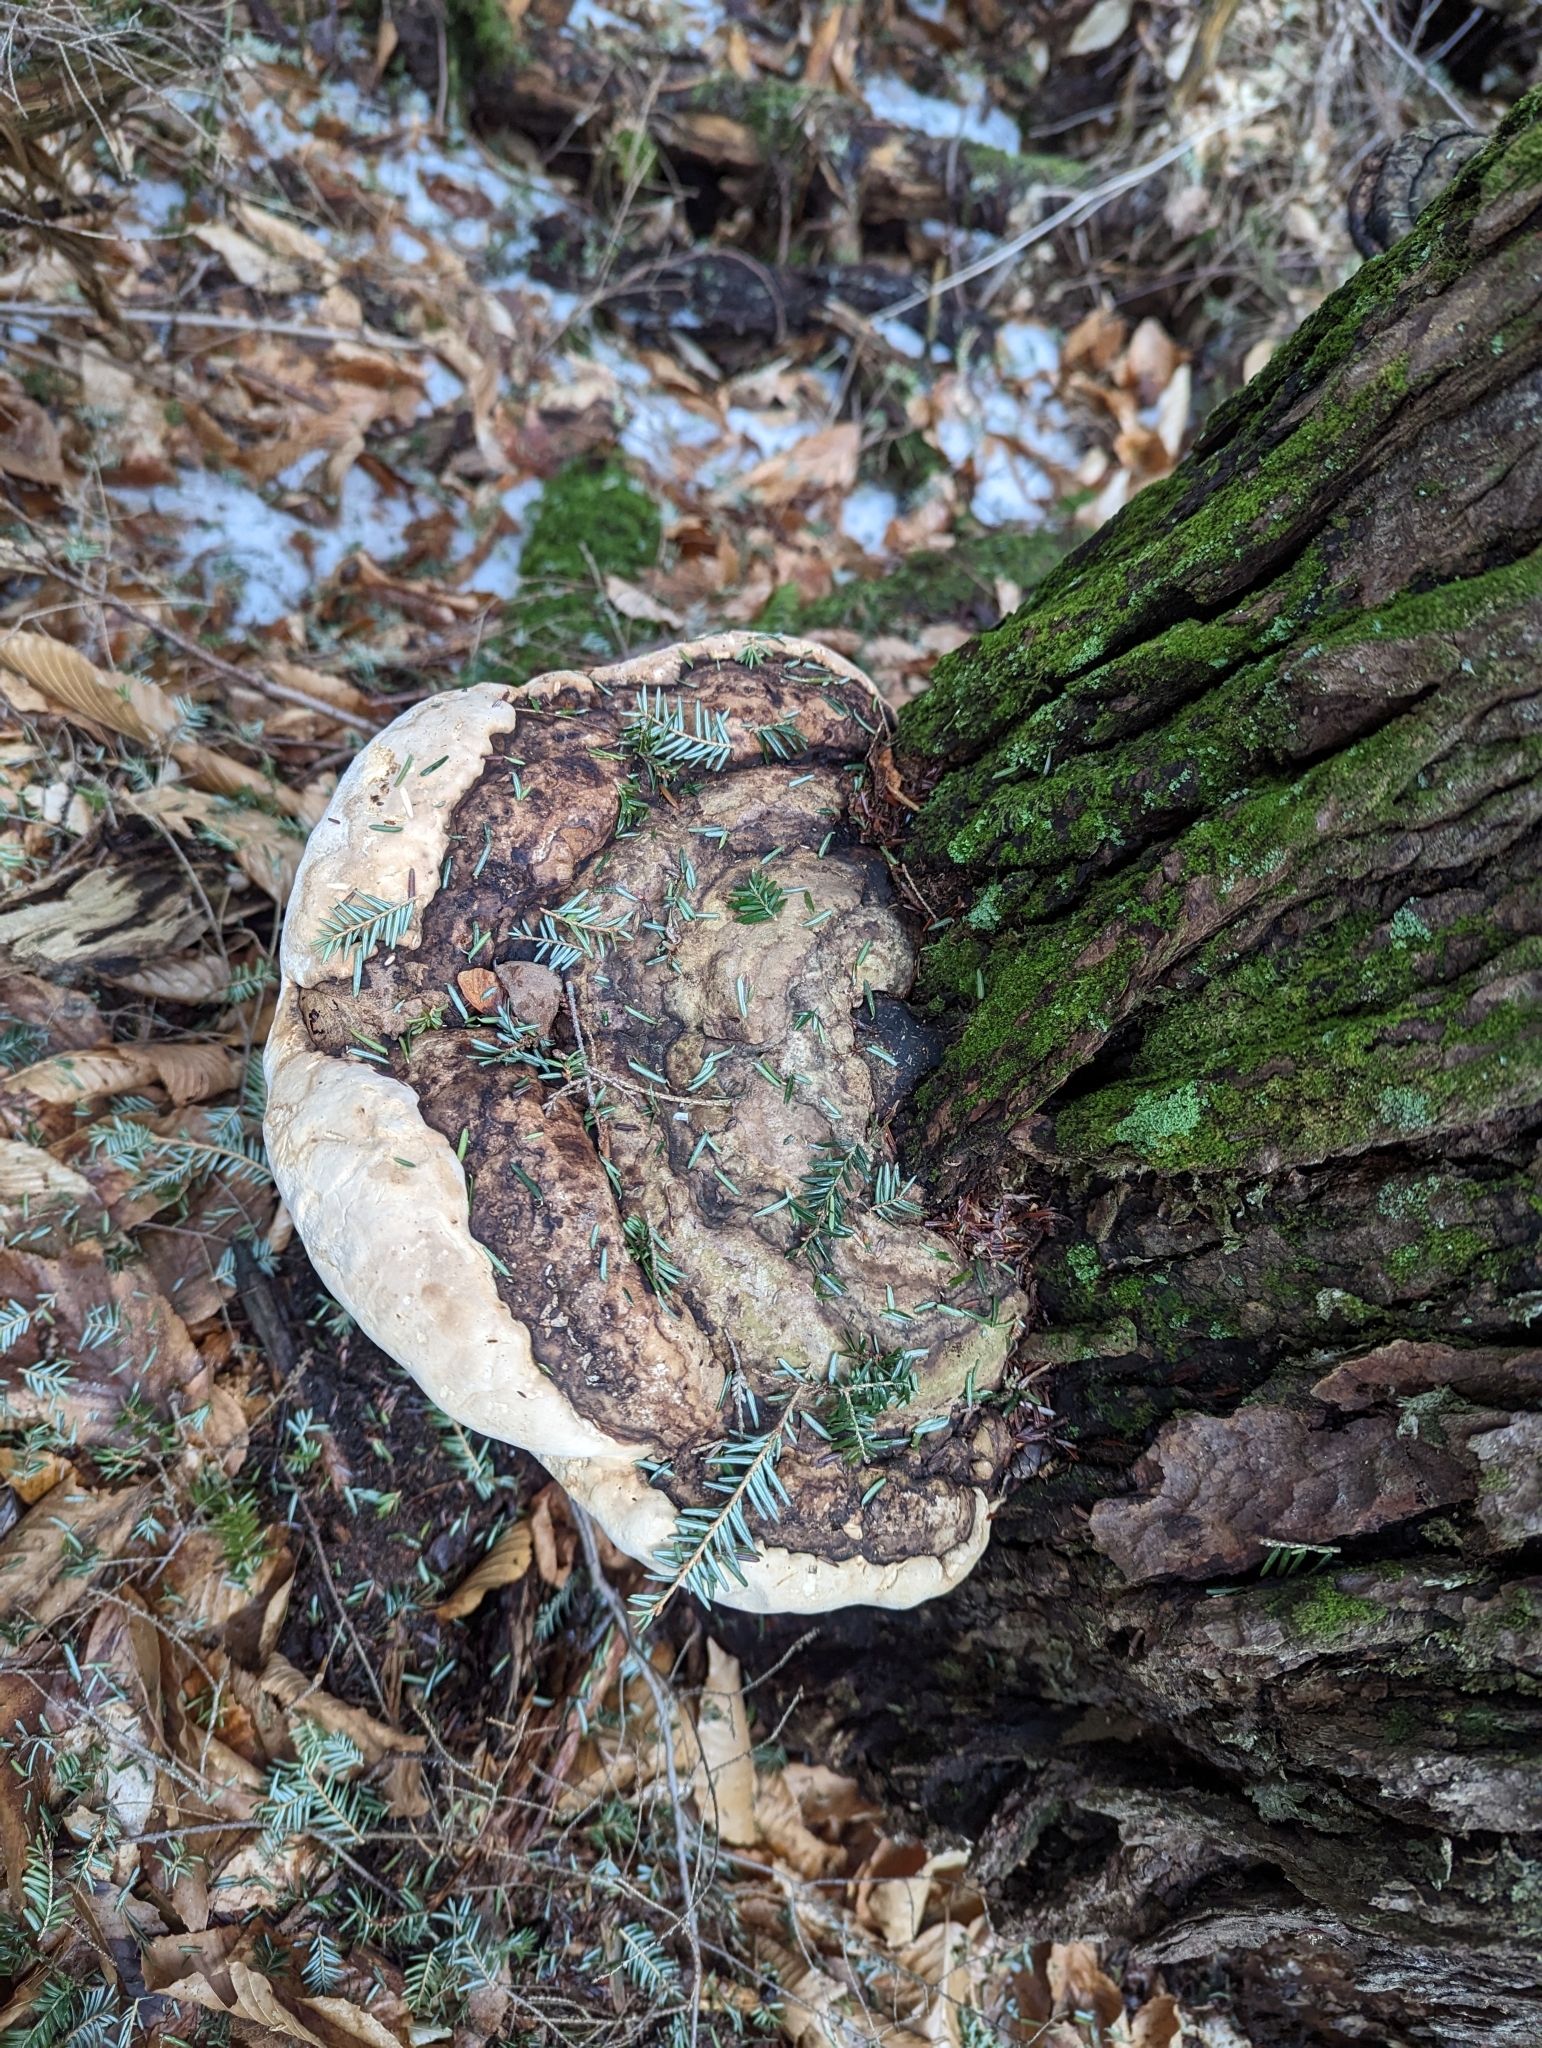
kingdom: Fungi
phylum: Basidiomycota
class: Agaricomycetes
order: Polyporales
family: Fomitopsidaceae
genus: Fomitopsis
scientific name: Fomitopsis ochracea
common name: American brown fomitopsis
